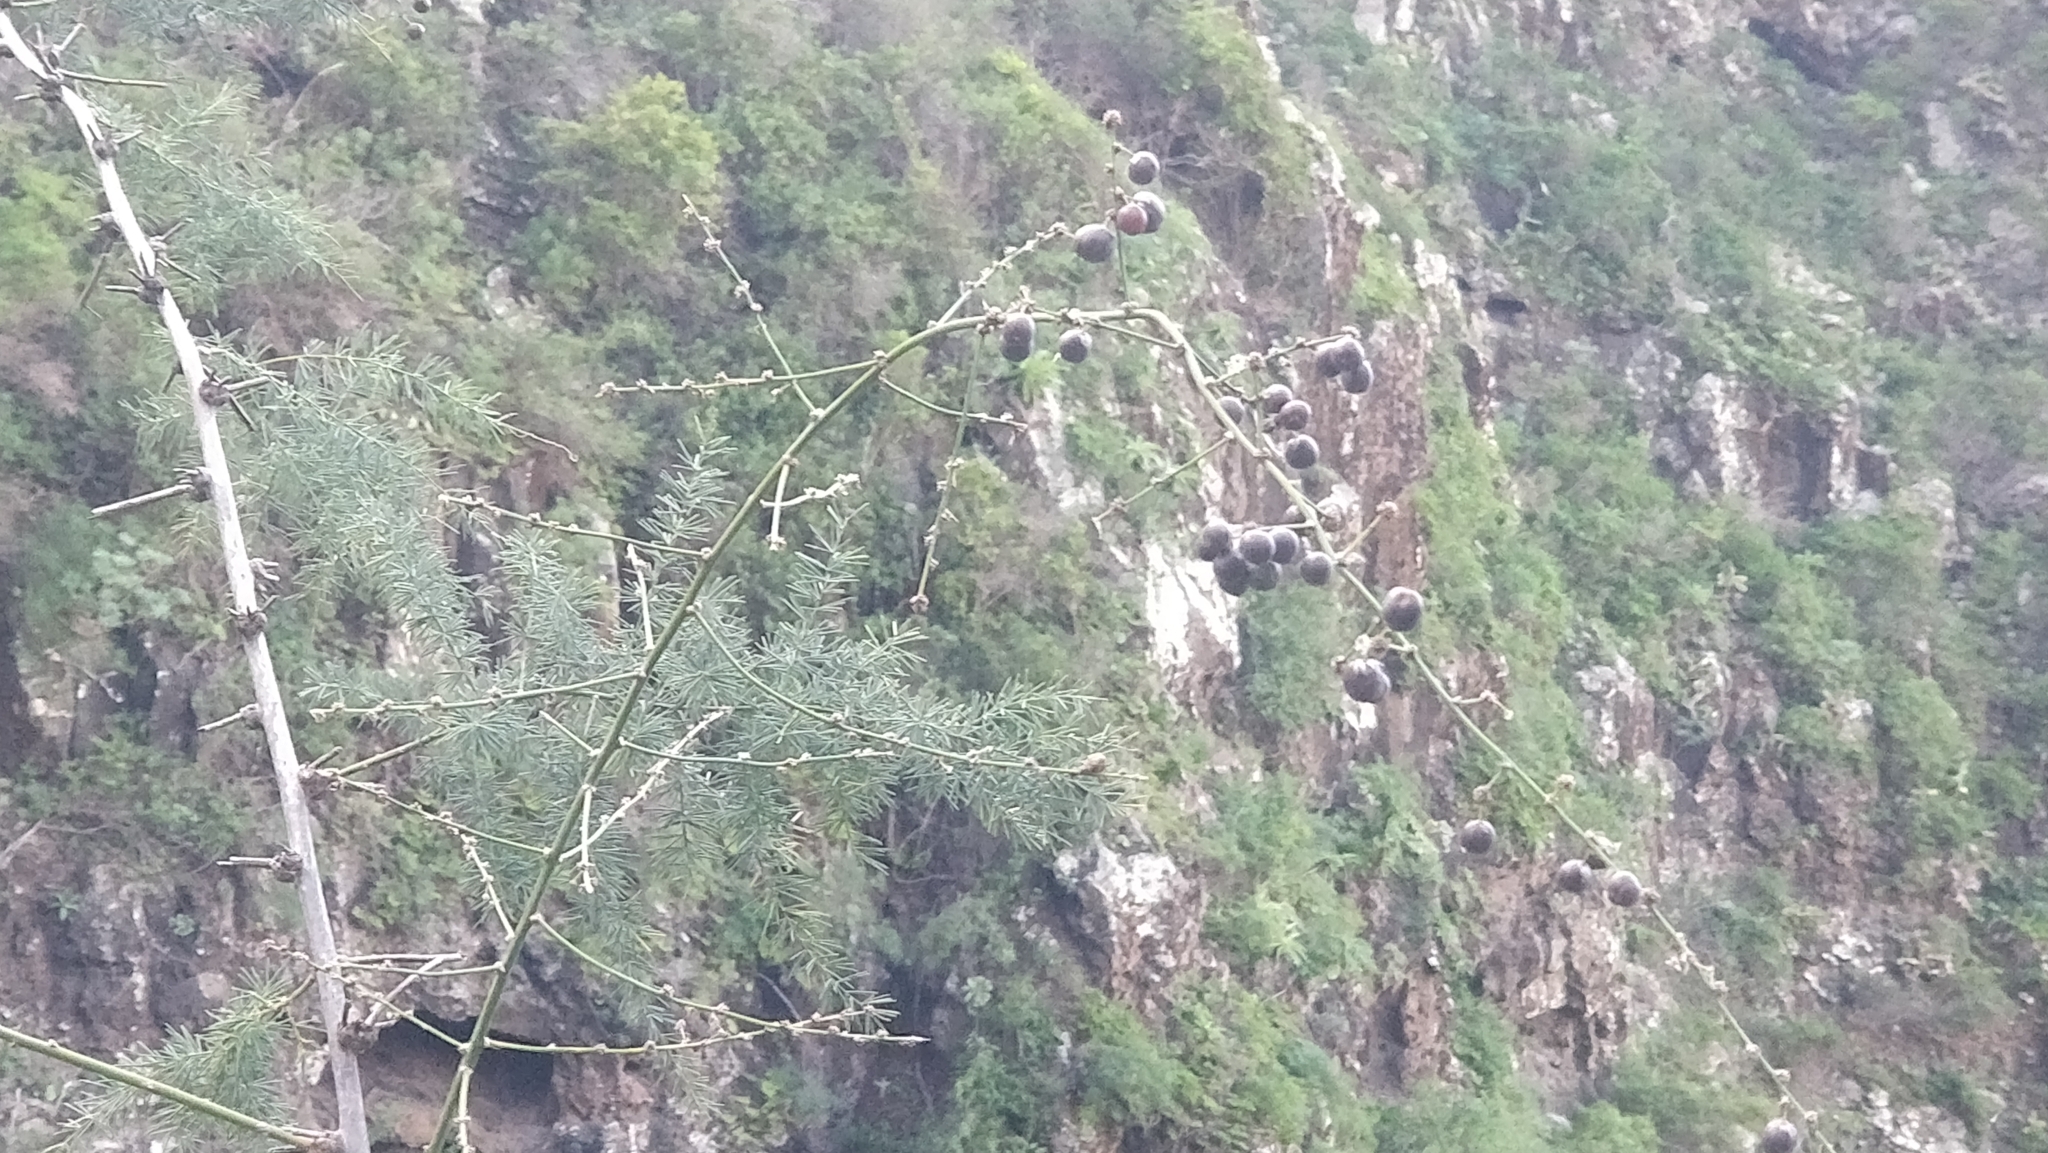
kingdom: Plantae
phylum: Tracheophyta
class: Liliopsida
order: Asparagales
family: Asparagaceae
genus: Asparagus
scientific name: Asparagus umbellatus
